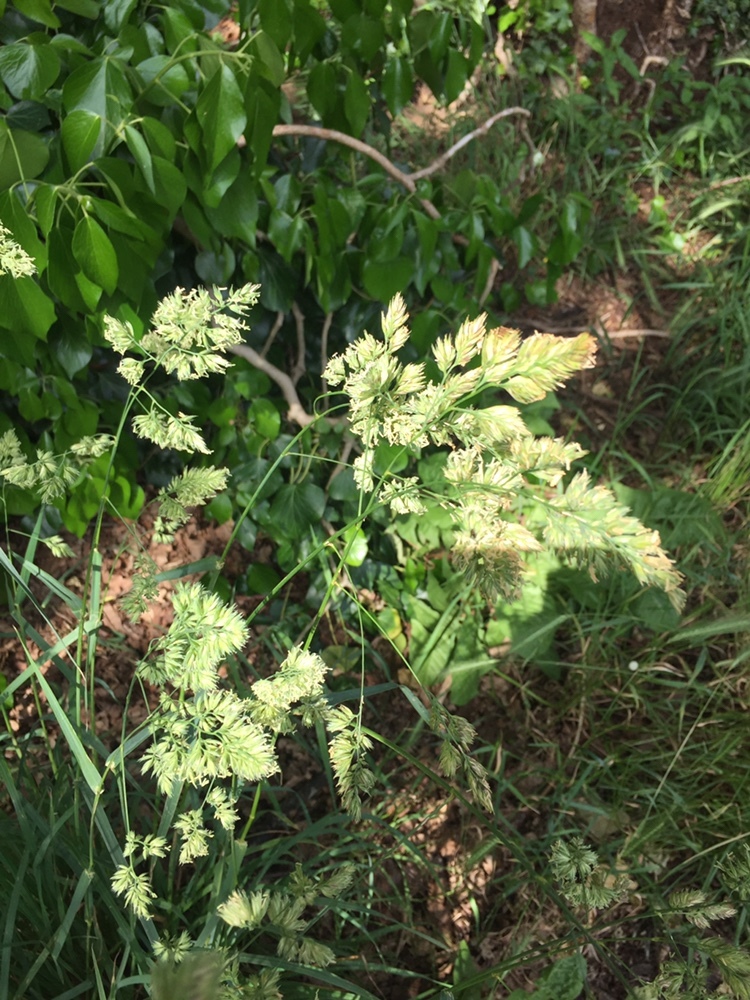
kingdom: Plantae
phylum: Tracheophyta
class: Liliopsida
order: Poales
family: Poaceae
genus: Dactylis
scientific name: Dactylis glomerata
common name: Orchardgrass
